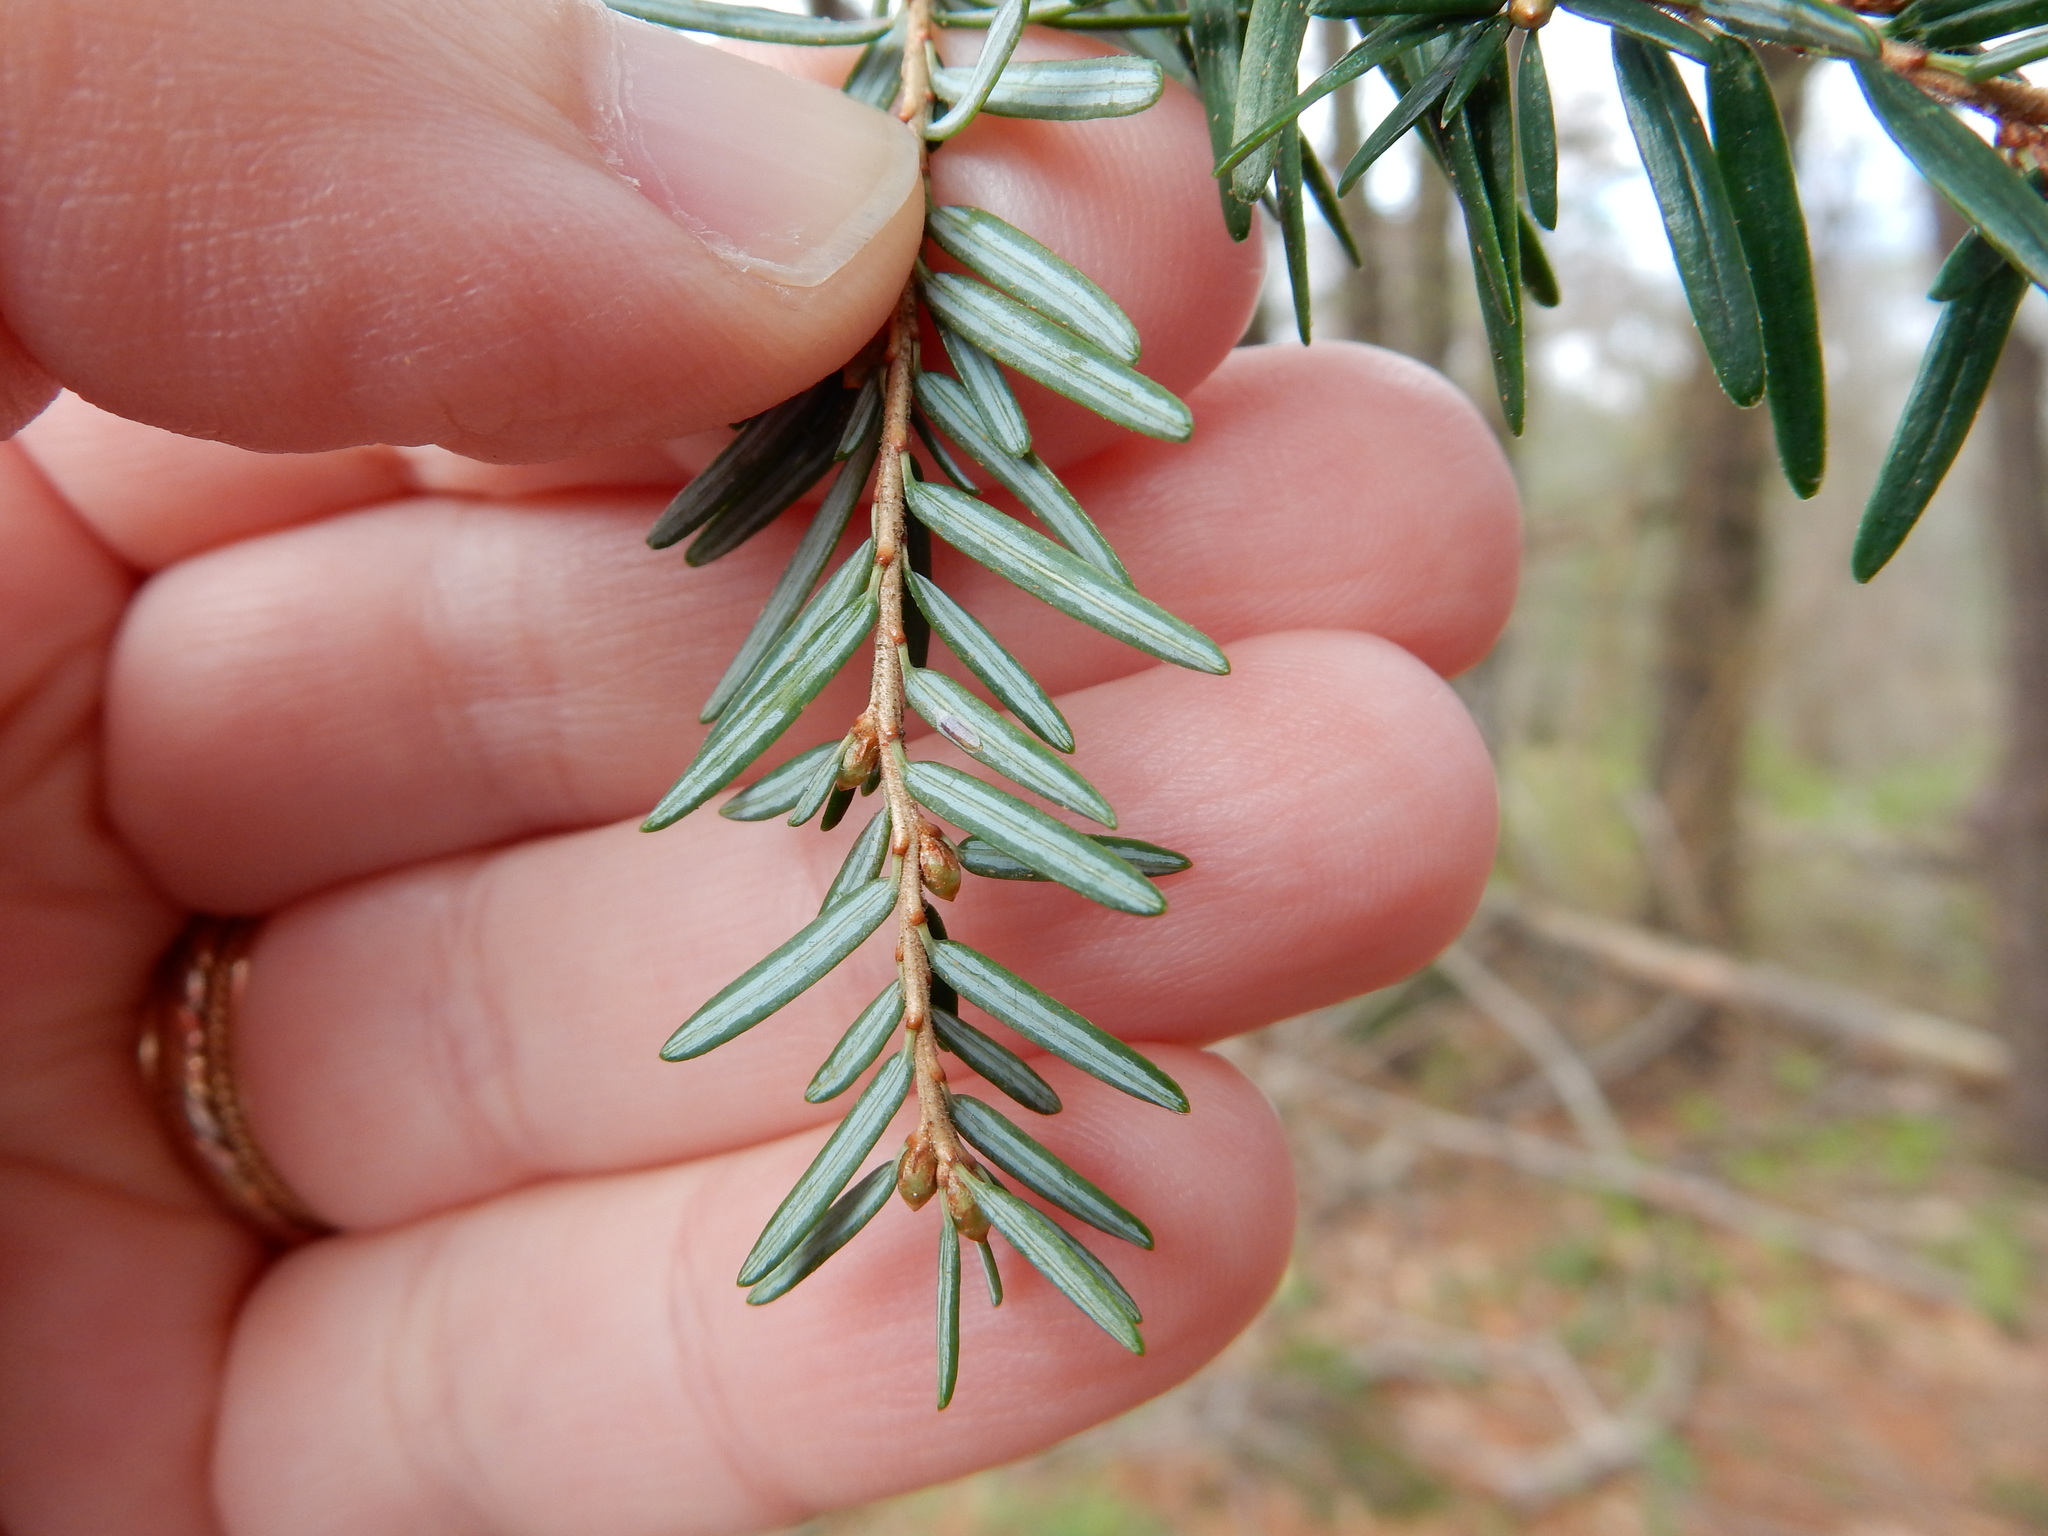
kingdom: Plantae
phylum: Tracheophyta
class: Pinopsida
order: Pinales
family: Pinaceae
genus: Tsuga
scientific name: Tsuga canadensis
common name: Eastern hemlock
